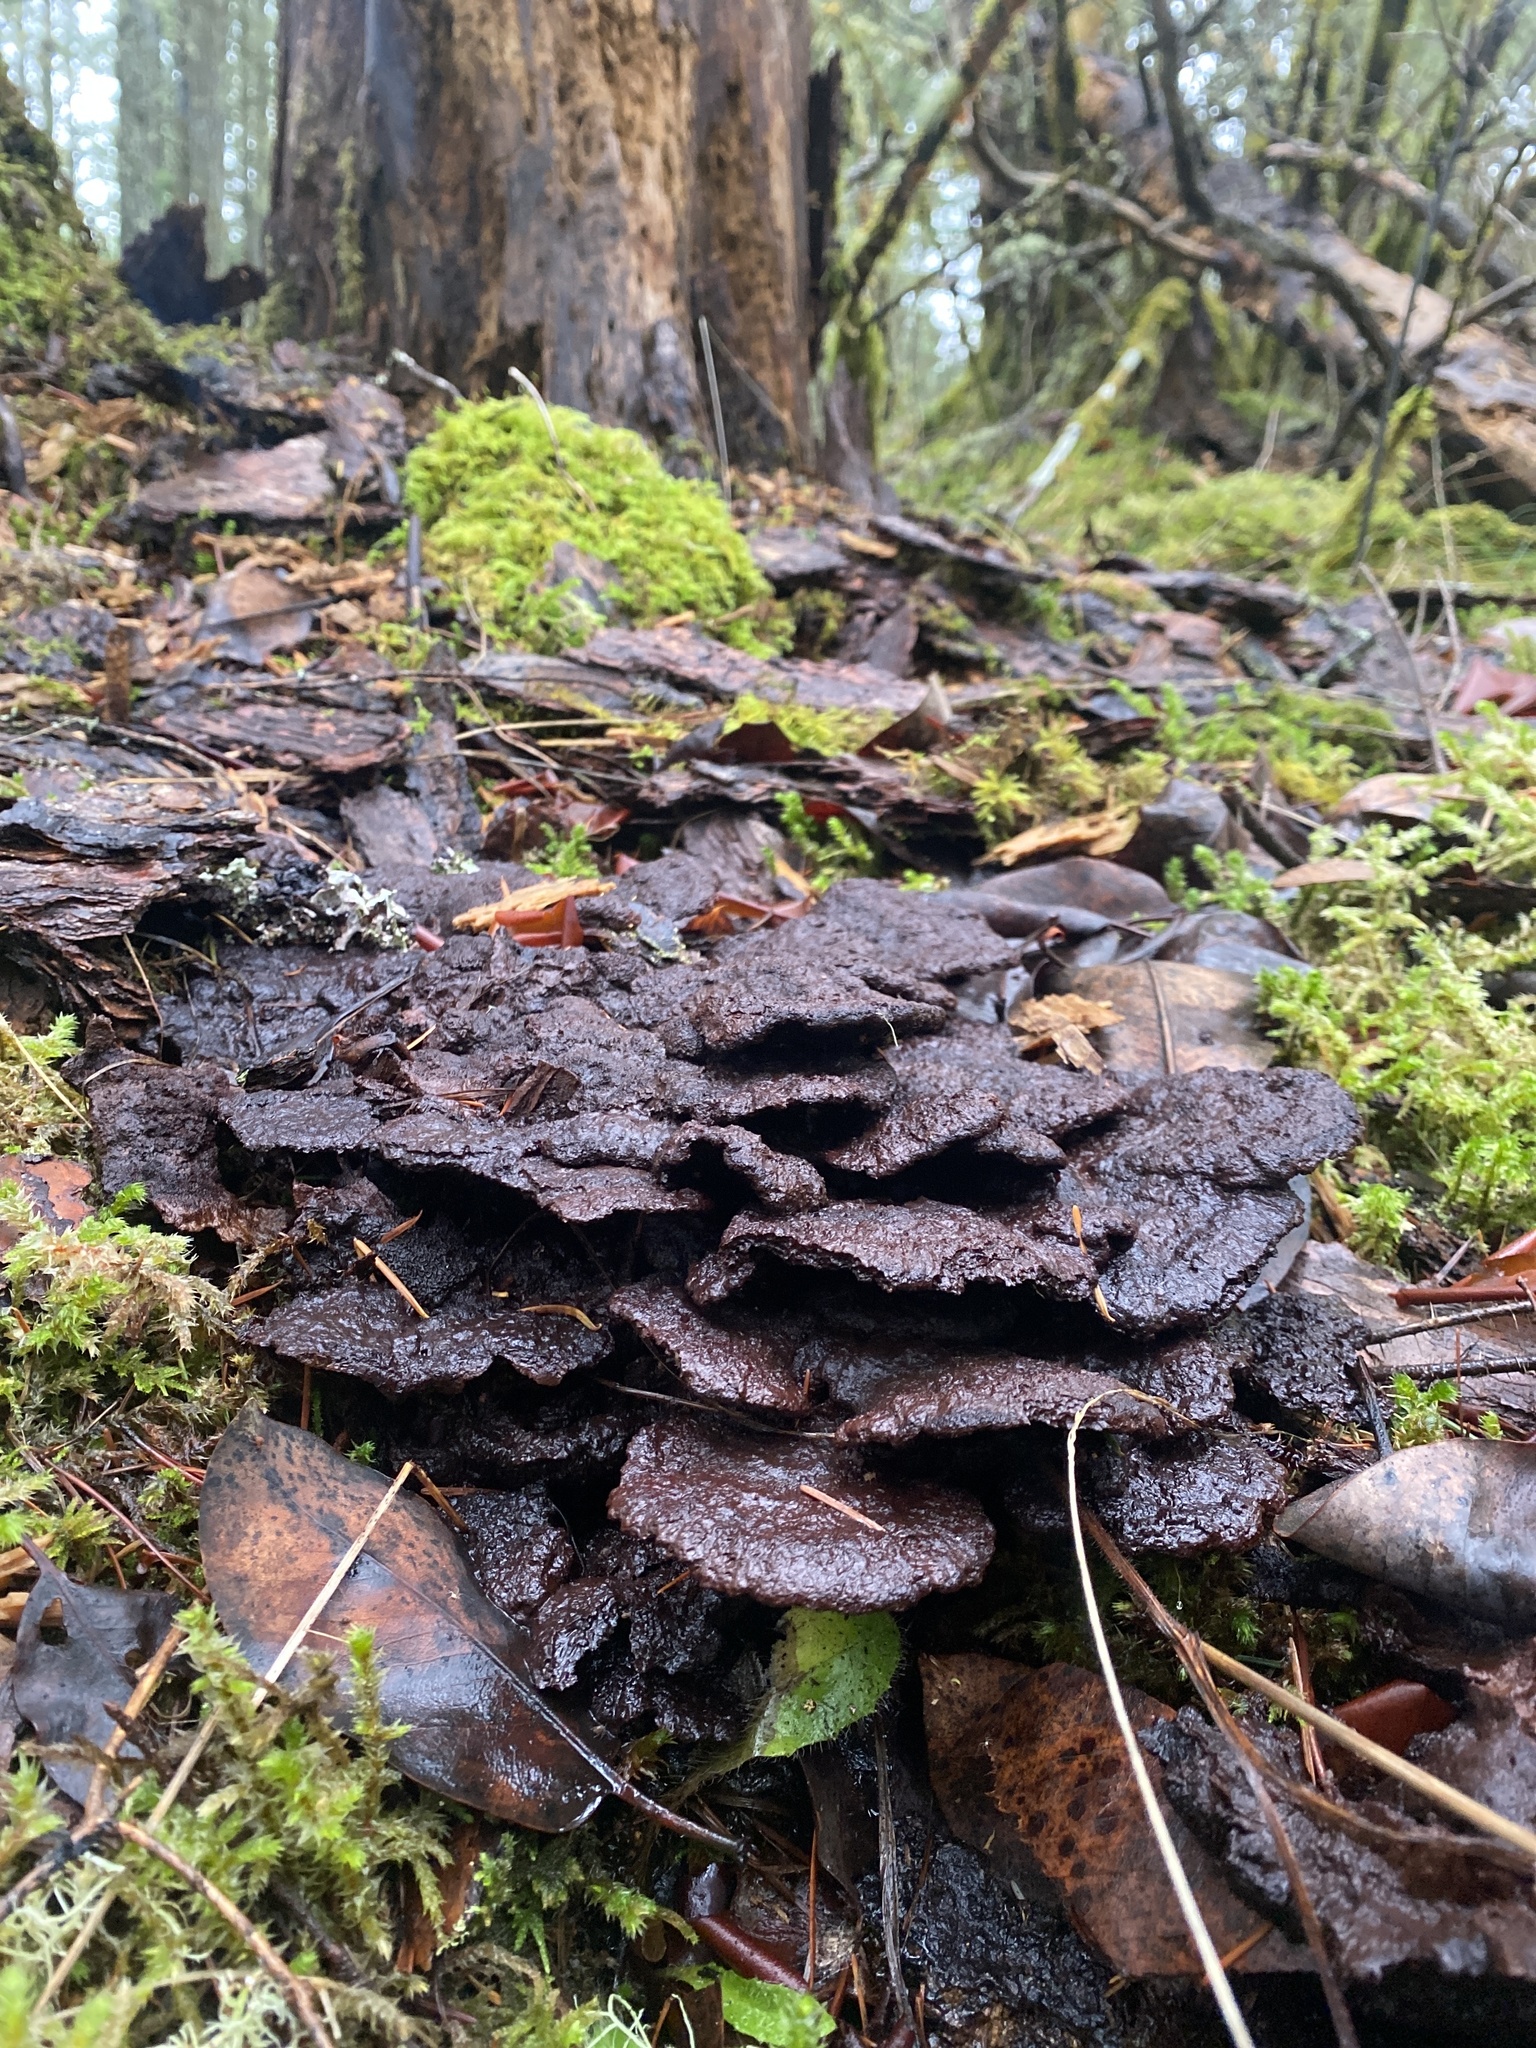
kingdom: Fungi
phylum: Basidiomycota
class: Agaricomycetes
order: Polyporales
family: Laetiporaceae
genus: Phaeolus
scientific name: Phaeolus schweinitzii
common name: Dyer's mazegill
